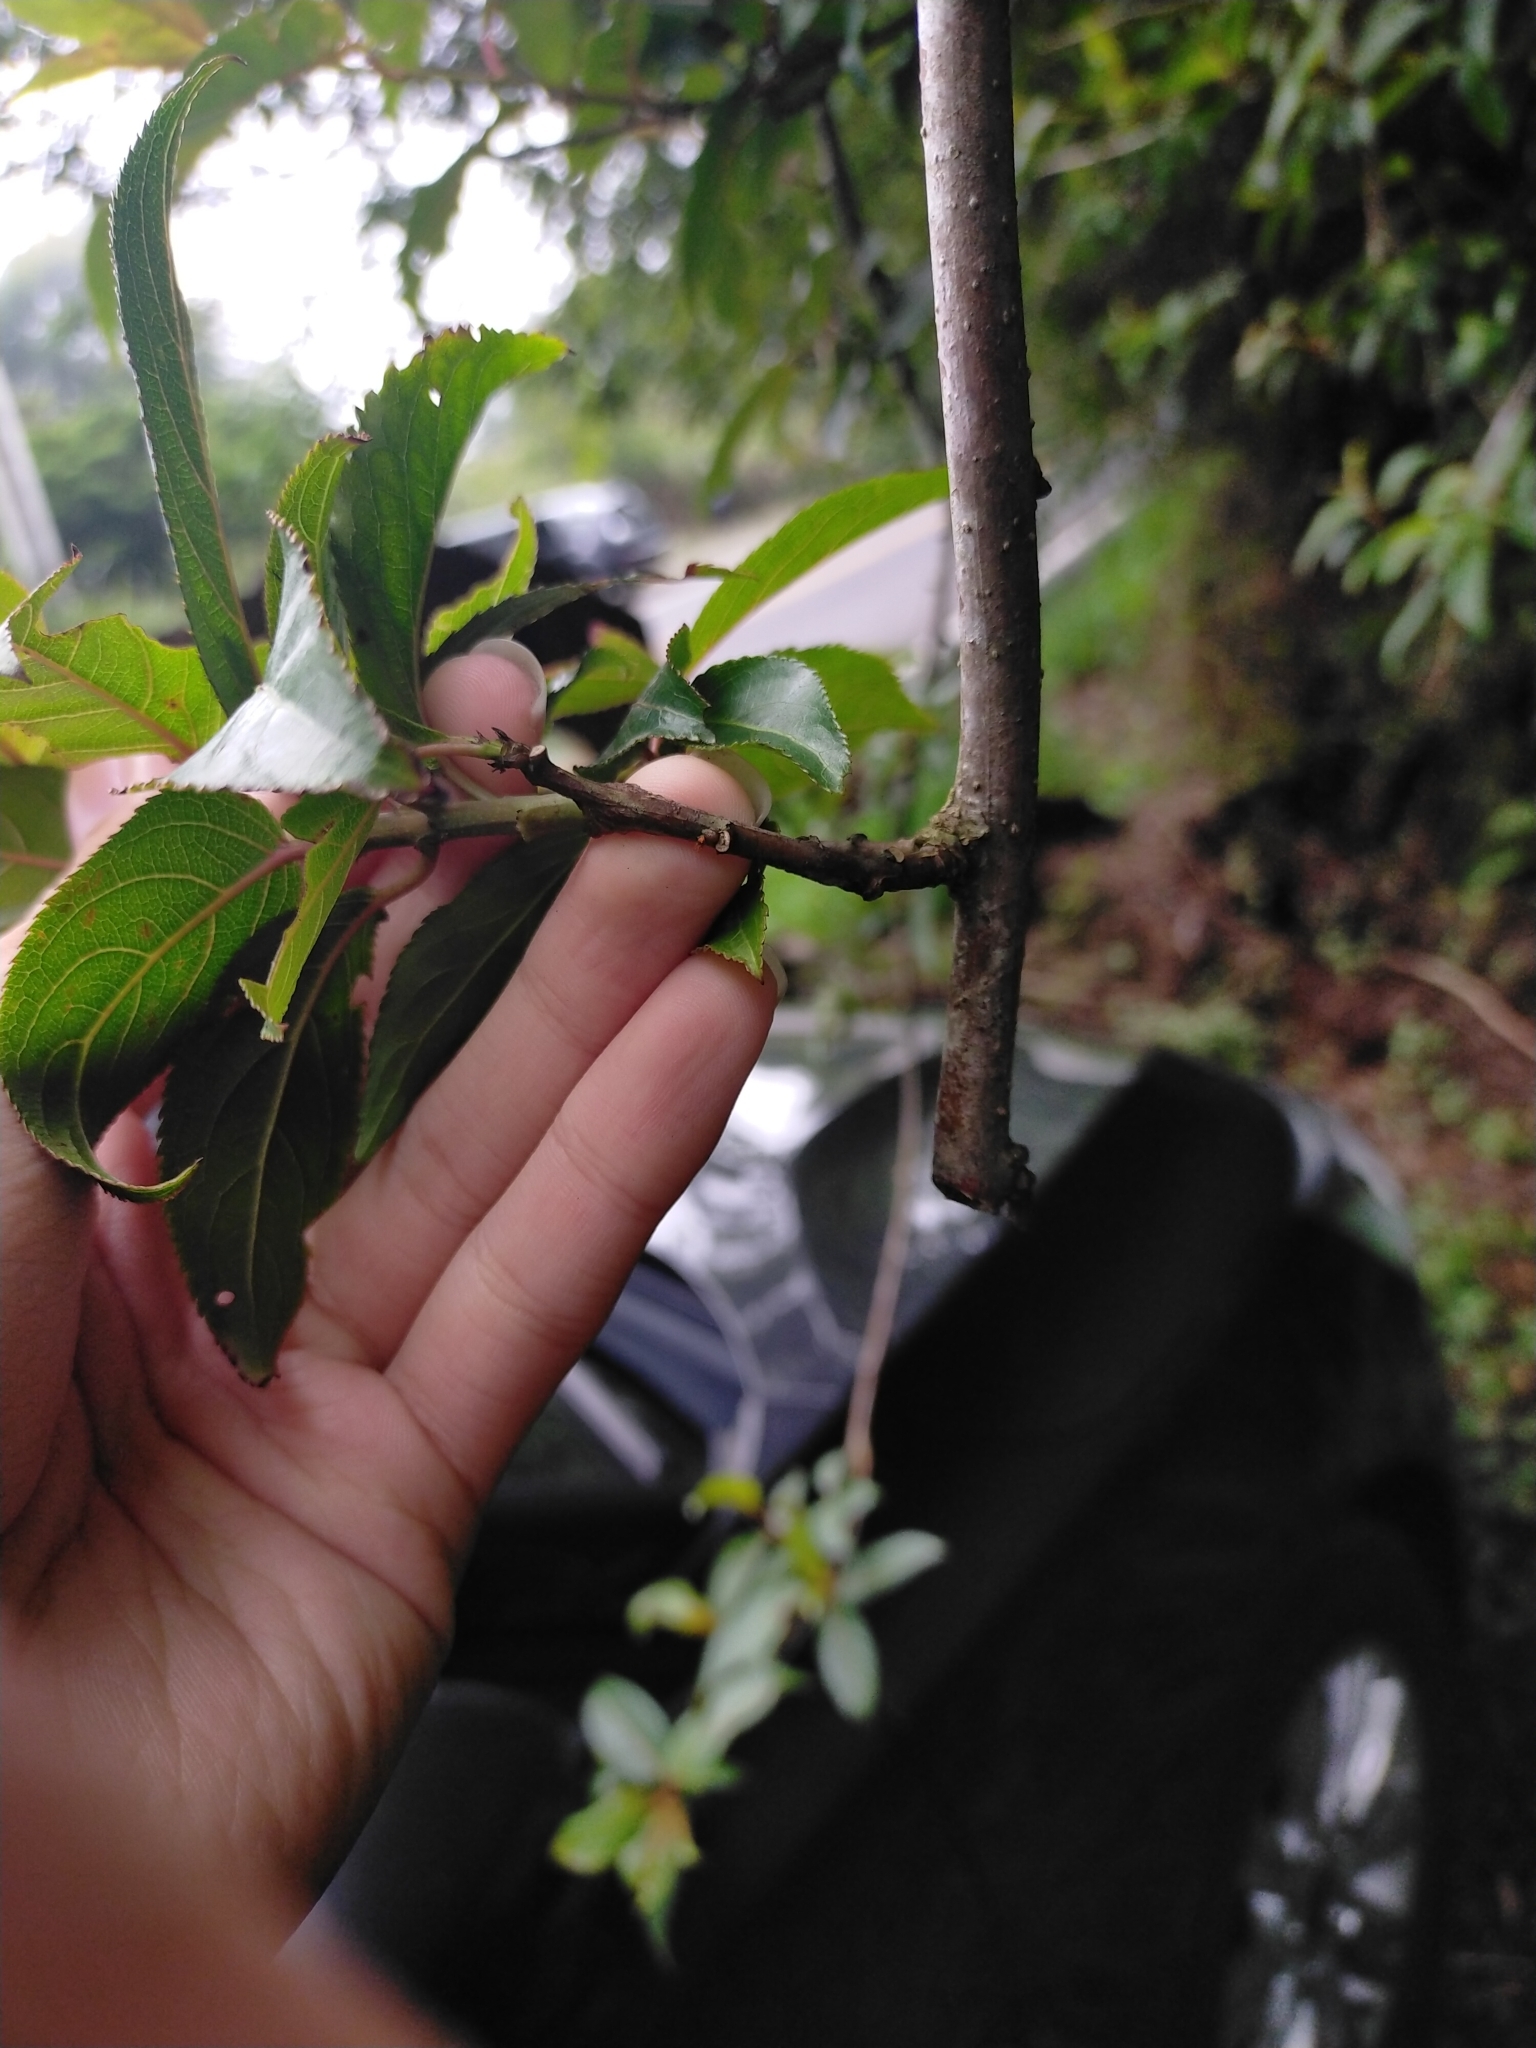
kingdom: Plantae
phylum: Tracheophyta
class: Magnoliopsida
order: Crossosomatales
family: Stachyuraceae
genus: Stachyurus
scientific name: Stachyurus himalaicus
